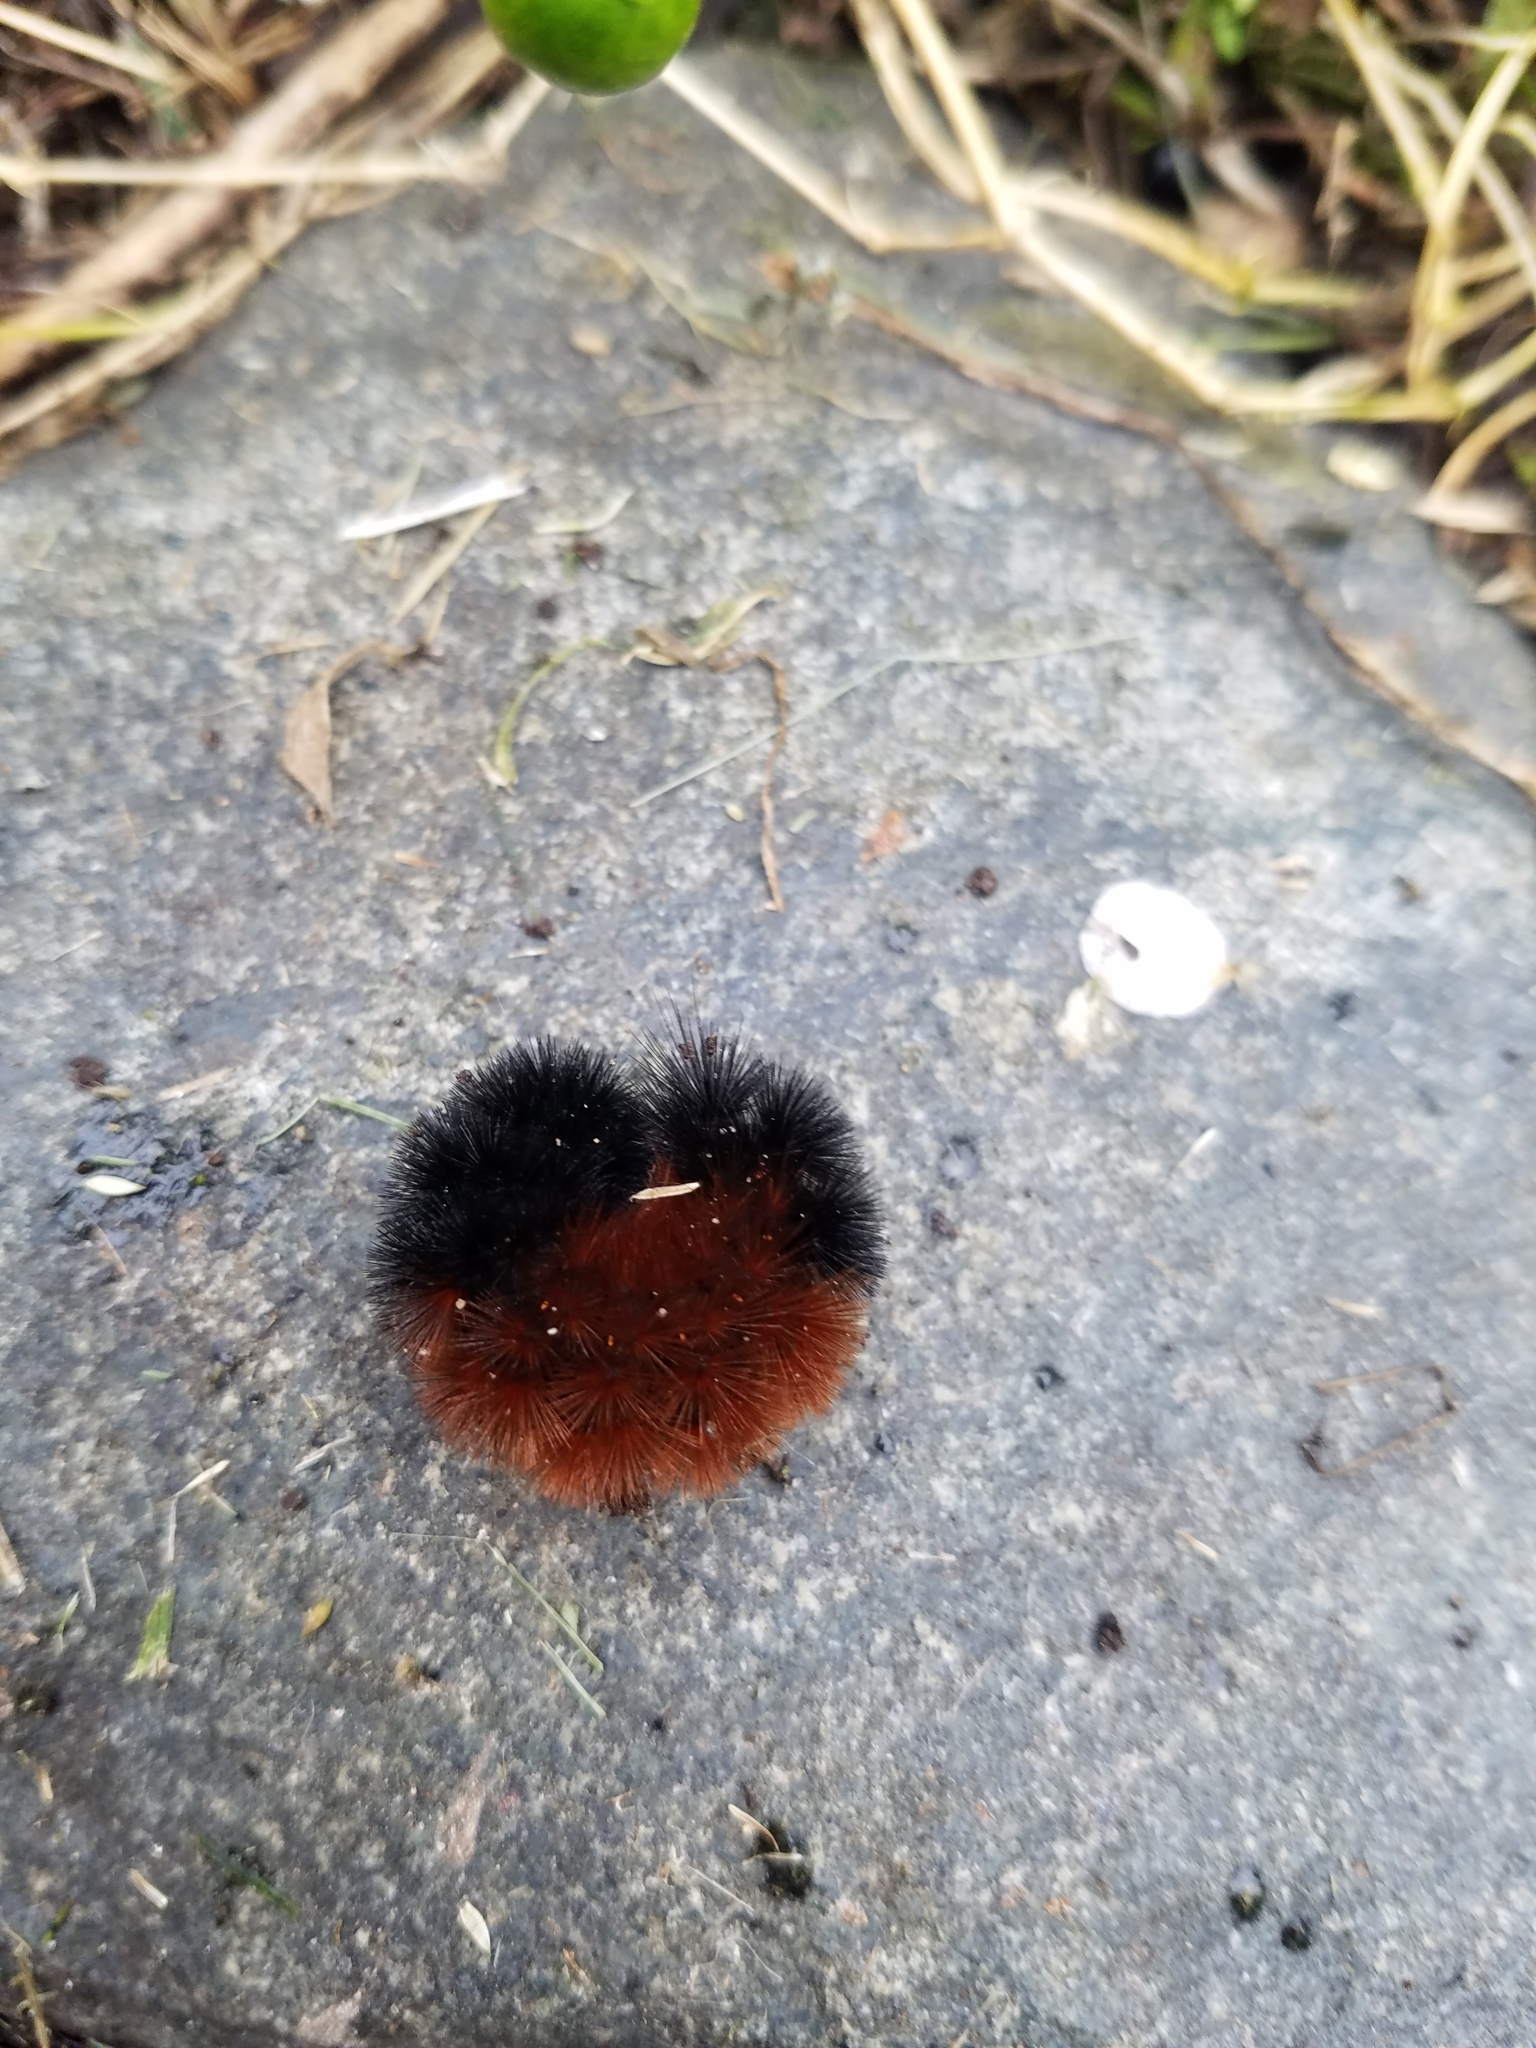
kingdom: Animalia
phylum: Arthropoda
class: Insecta
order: Lepidoptera
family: Erebidae
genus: Pyrrharctia
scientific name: Pyrrharctia isabella
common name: Isabella tiger moth
